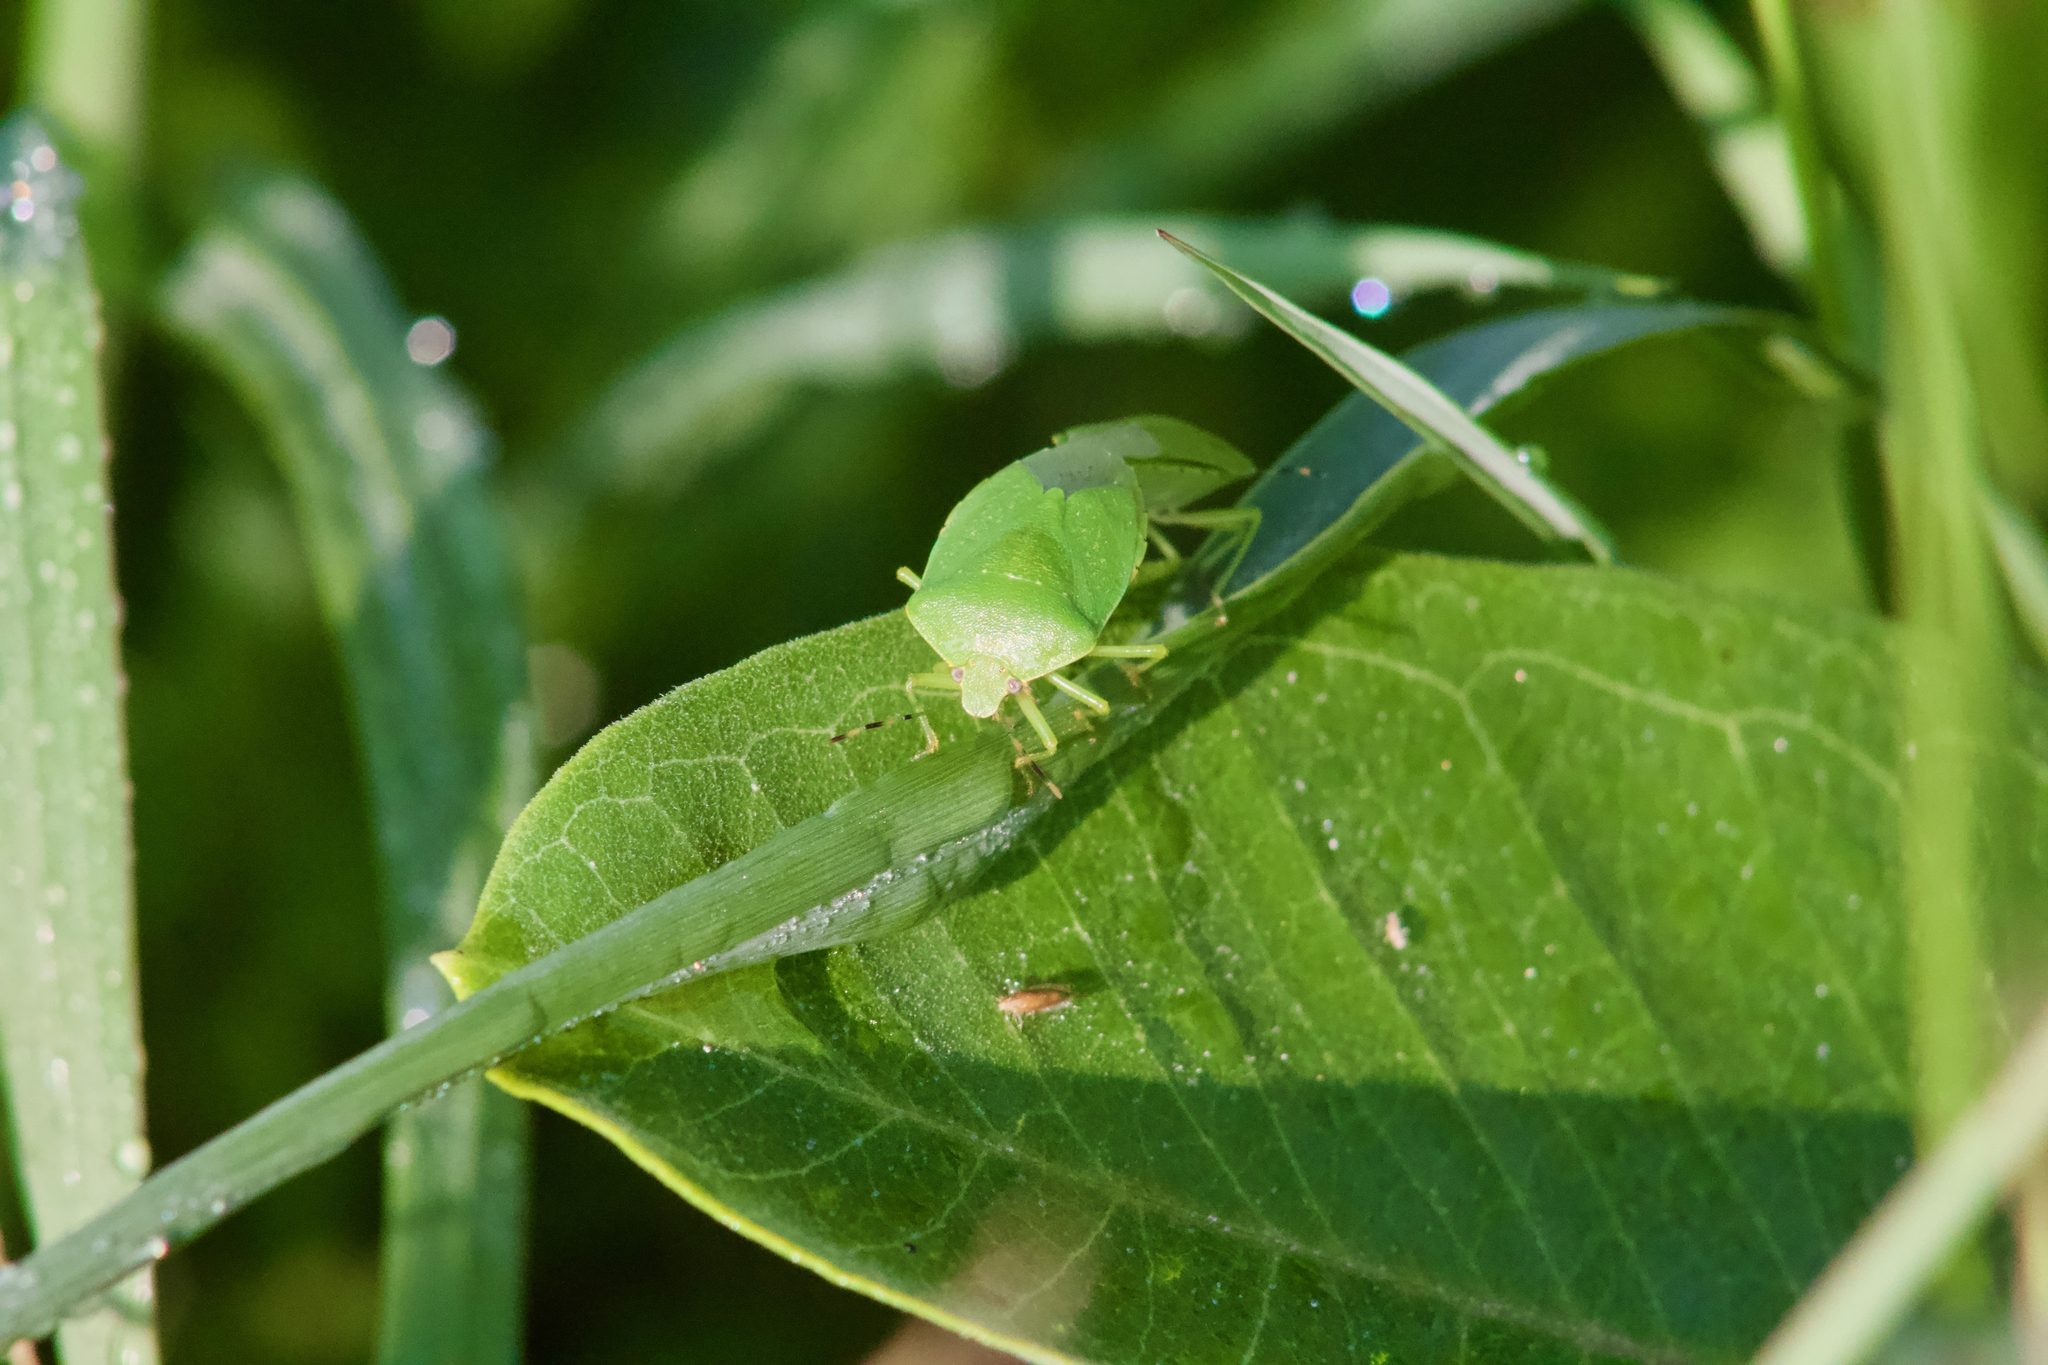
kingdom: Animalia
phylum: Arthropoda
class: Insecta
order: Hemiptera
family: Pentatomidae
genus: Chinavia
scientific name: Chinavia hilaris
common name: Green stink bug
